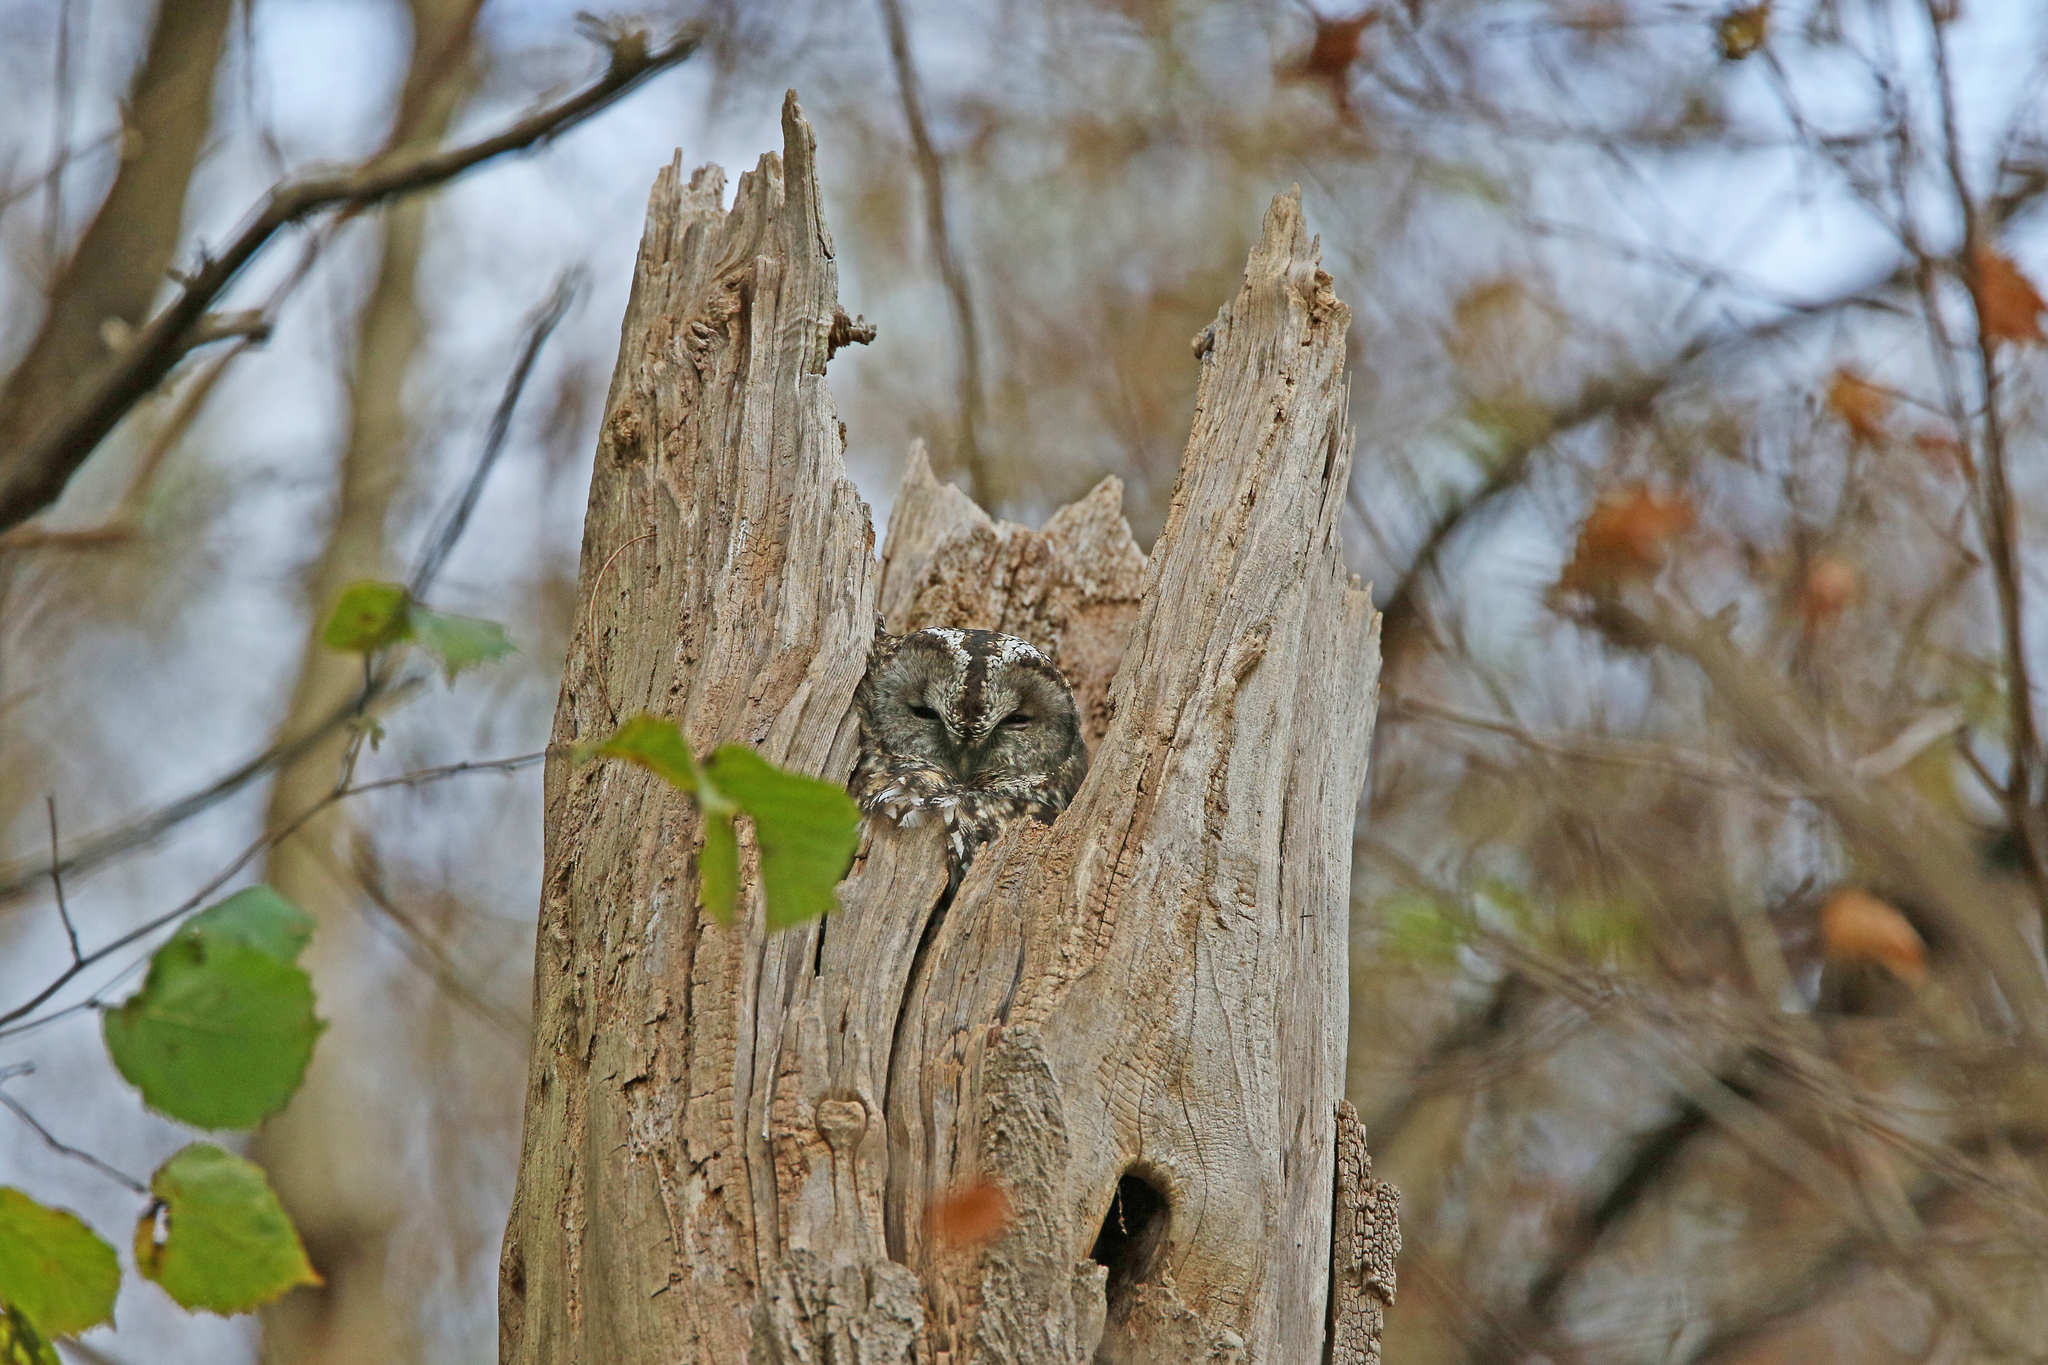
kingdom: Animalia
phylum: Chordata
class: Aves
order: Strigiformes
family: Strigidae
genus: Strix
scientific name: Strix aluco
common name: Tawny owl
